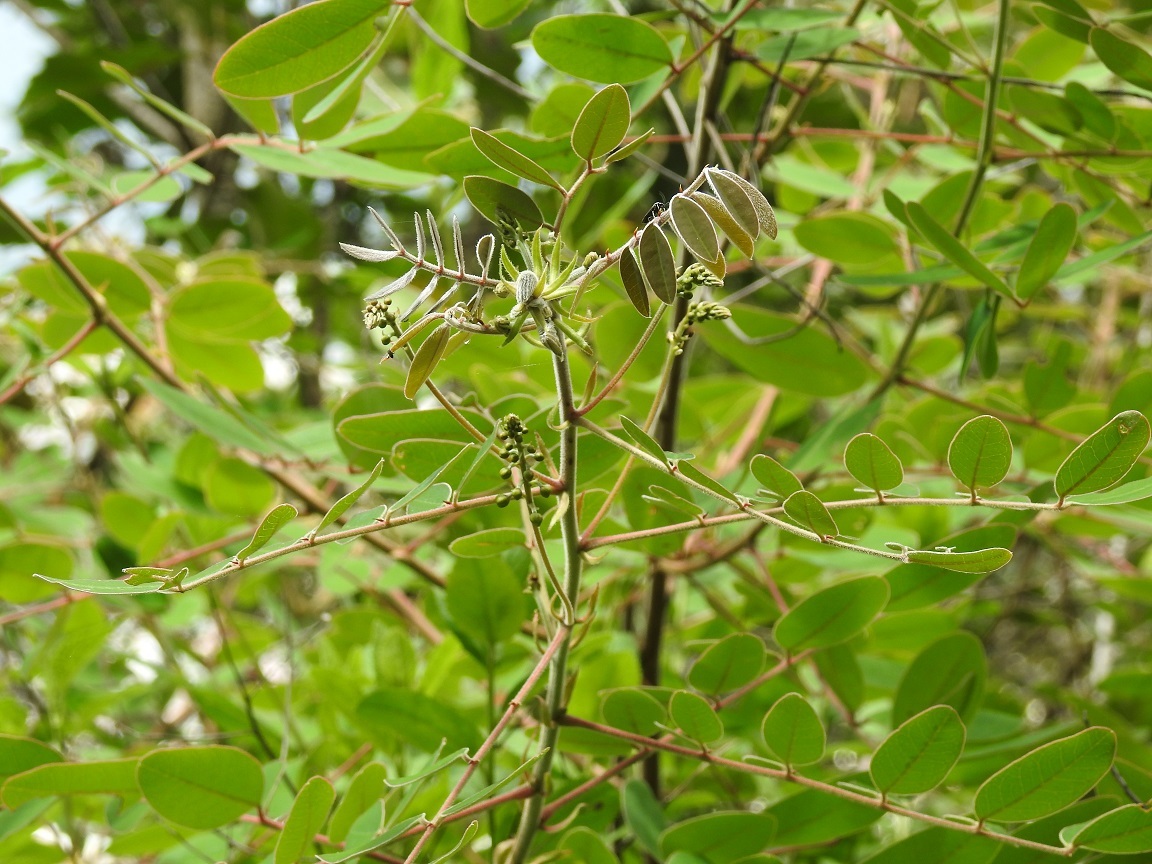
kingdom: Plantae
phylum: Tracheophyta
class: Magnoliopsida
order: Fabales
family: Fabaceae
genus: Senna
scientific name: Senna foetidissima
